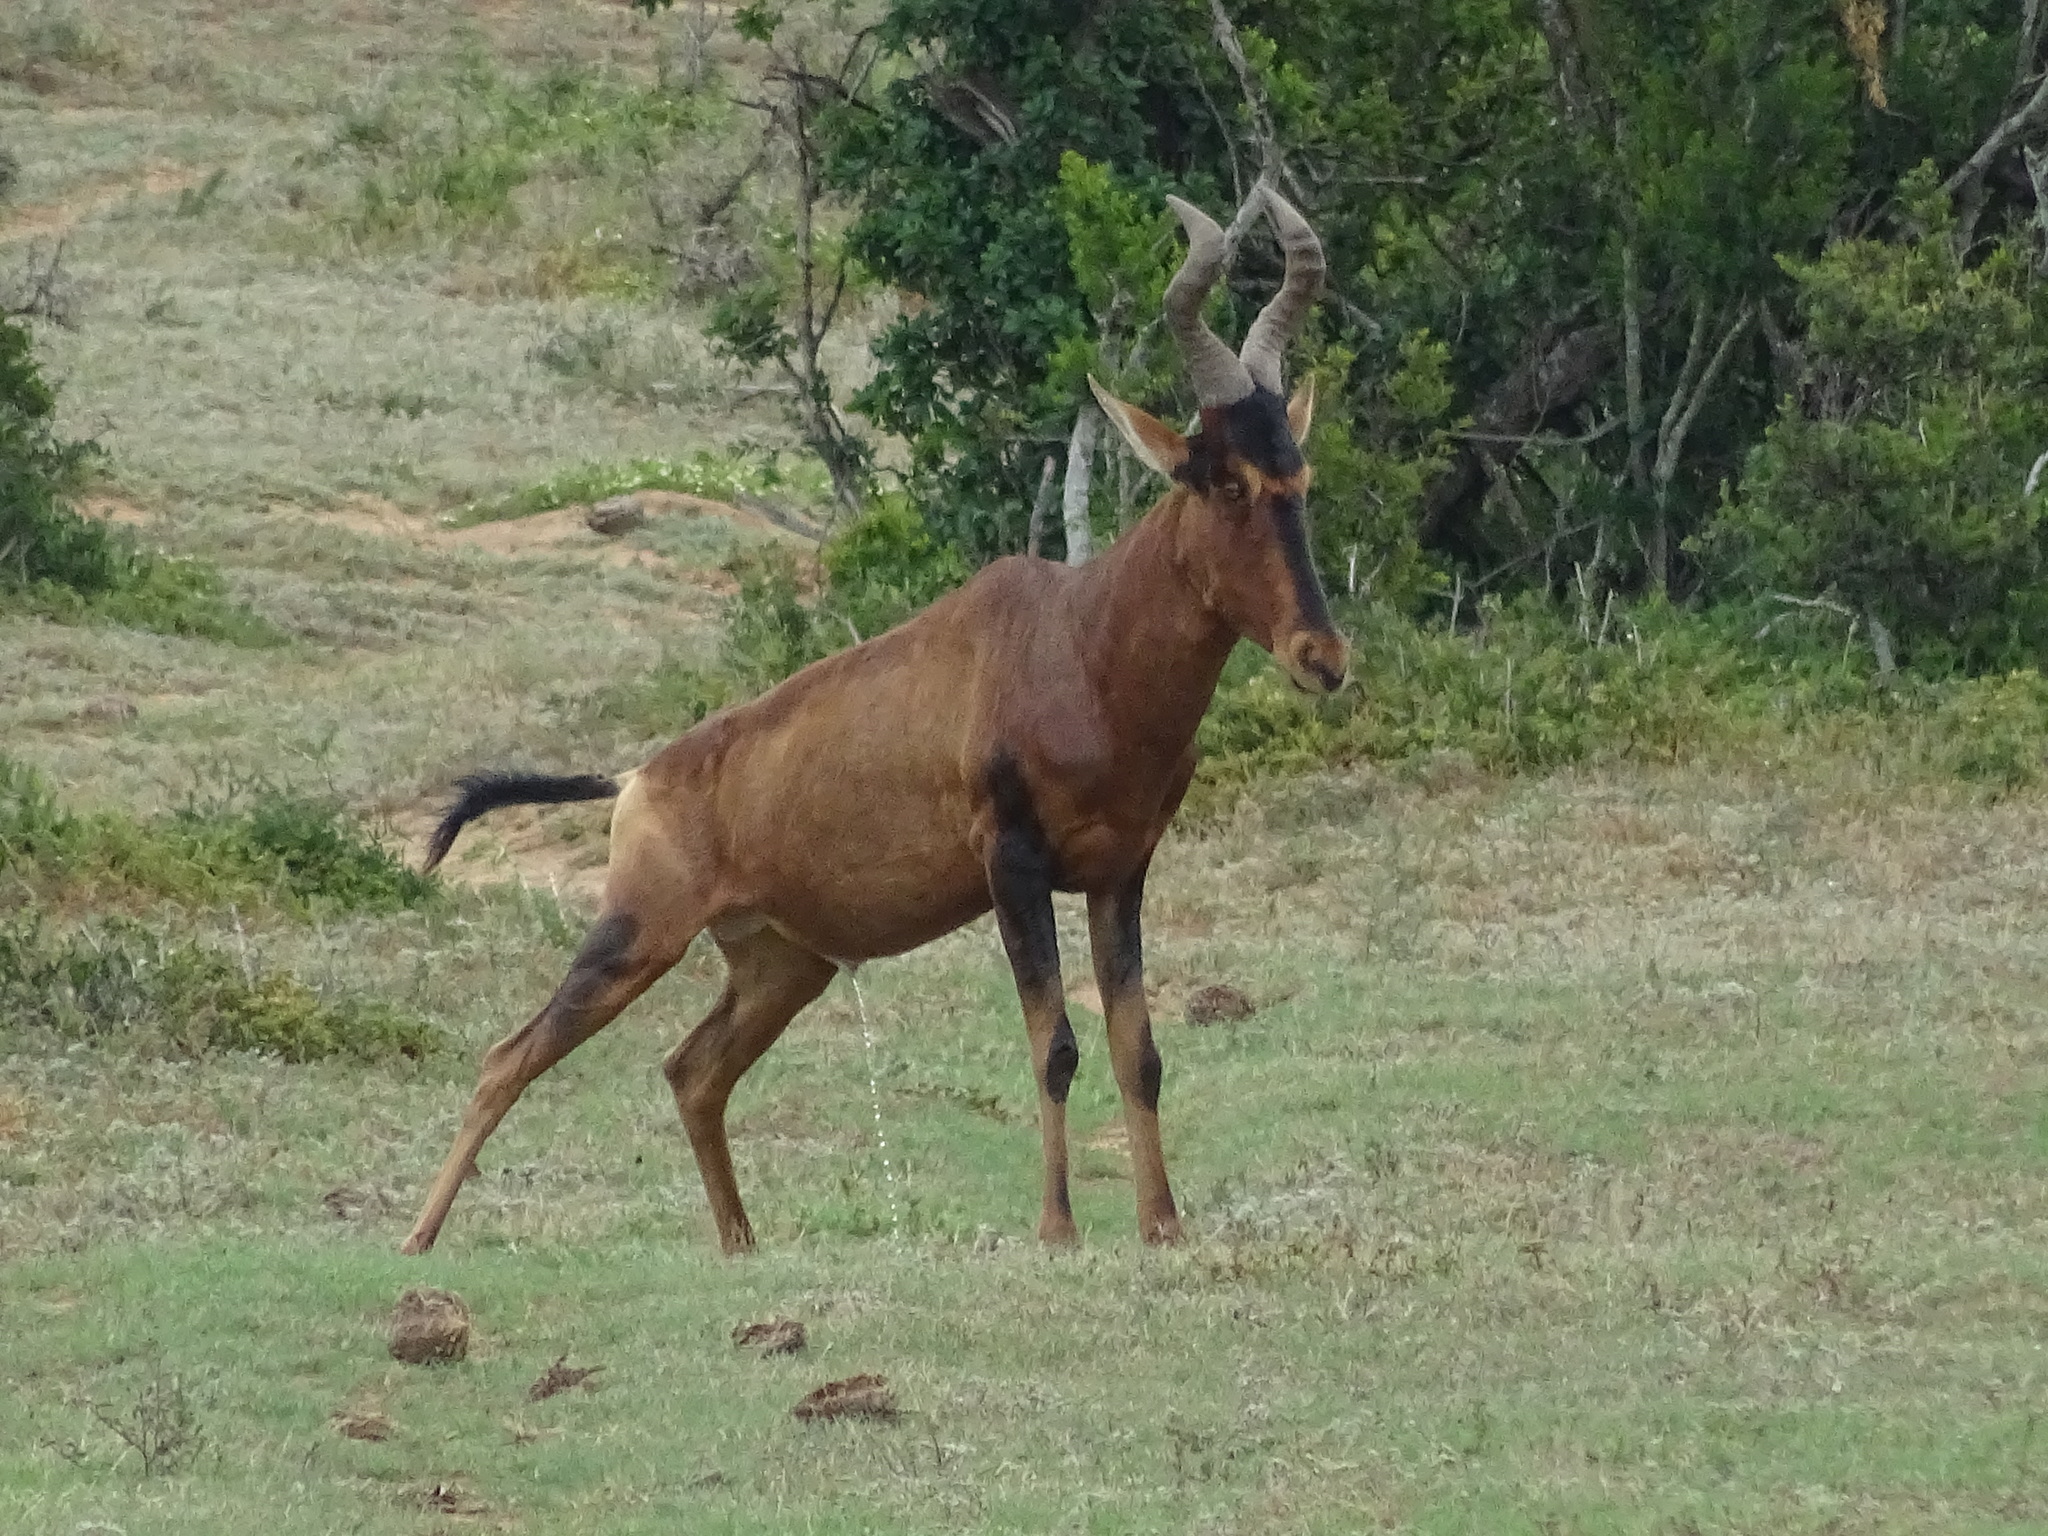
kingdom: Animalia
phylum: Chordata
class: Mammalia
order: Artiodactyla
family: Bovidae
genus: Alcelaphus
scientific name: Alcelaphus caama
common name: Red hartebeest
